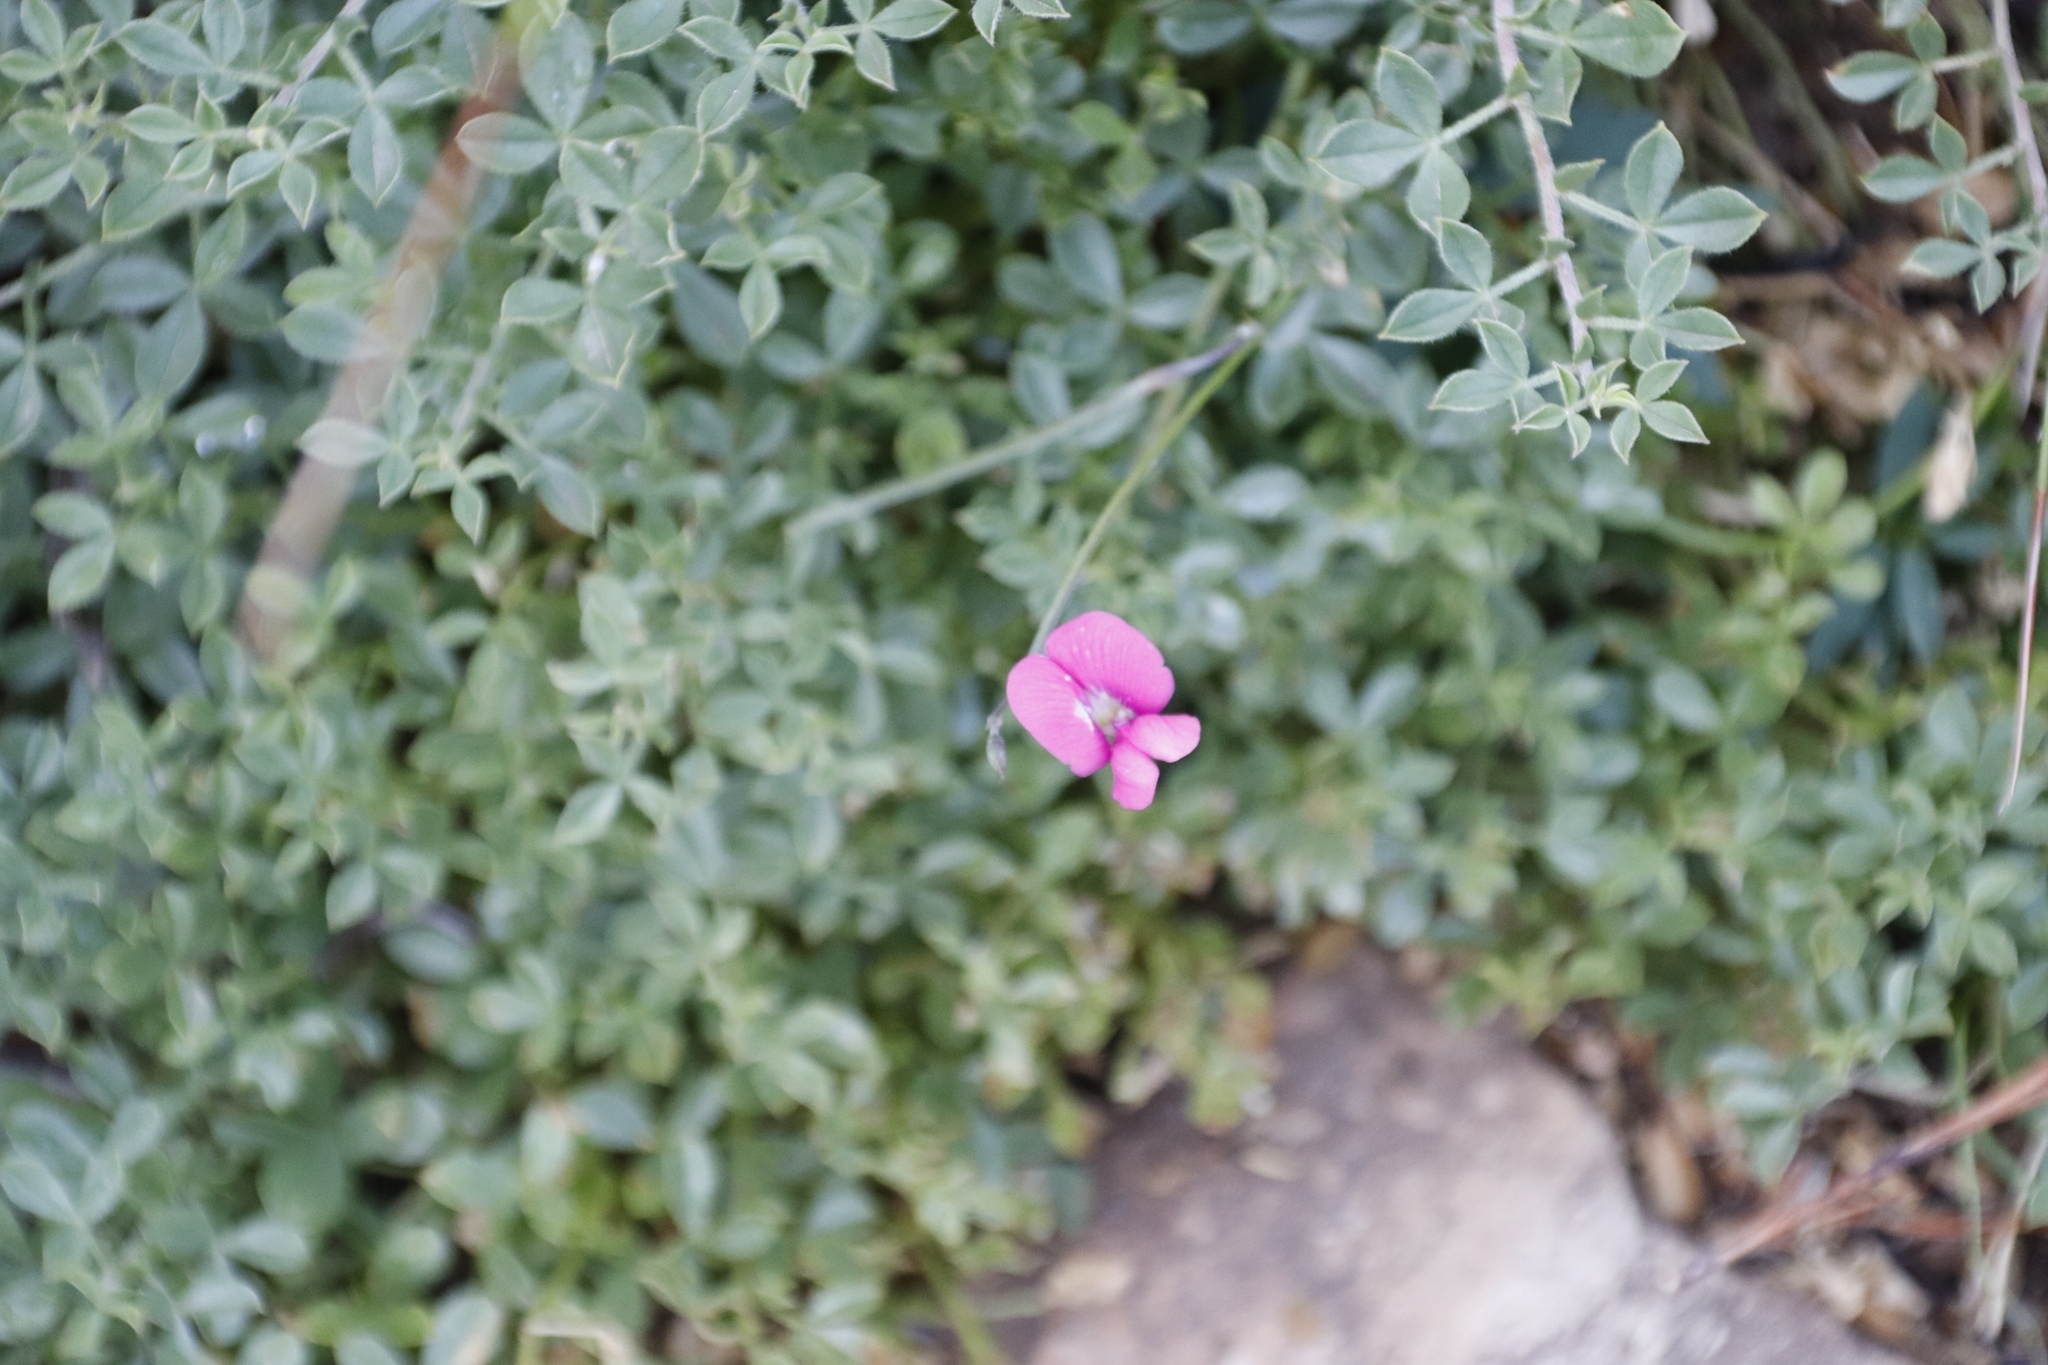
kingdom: Plantae
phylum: Tracheophyta
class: Magnoliopsida
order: Fabales
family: Fabaceae
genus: Tephrosia
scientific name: Tephrosia capensis
